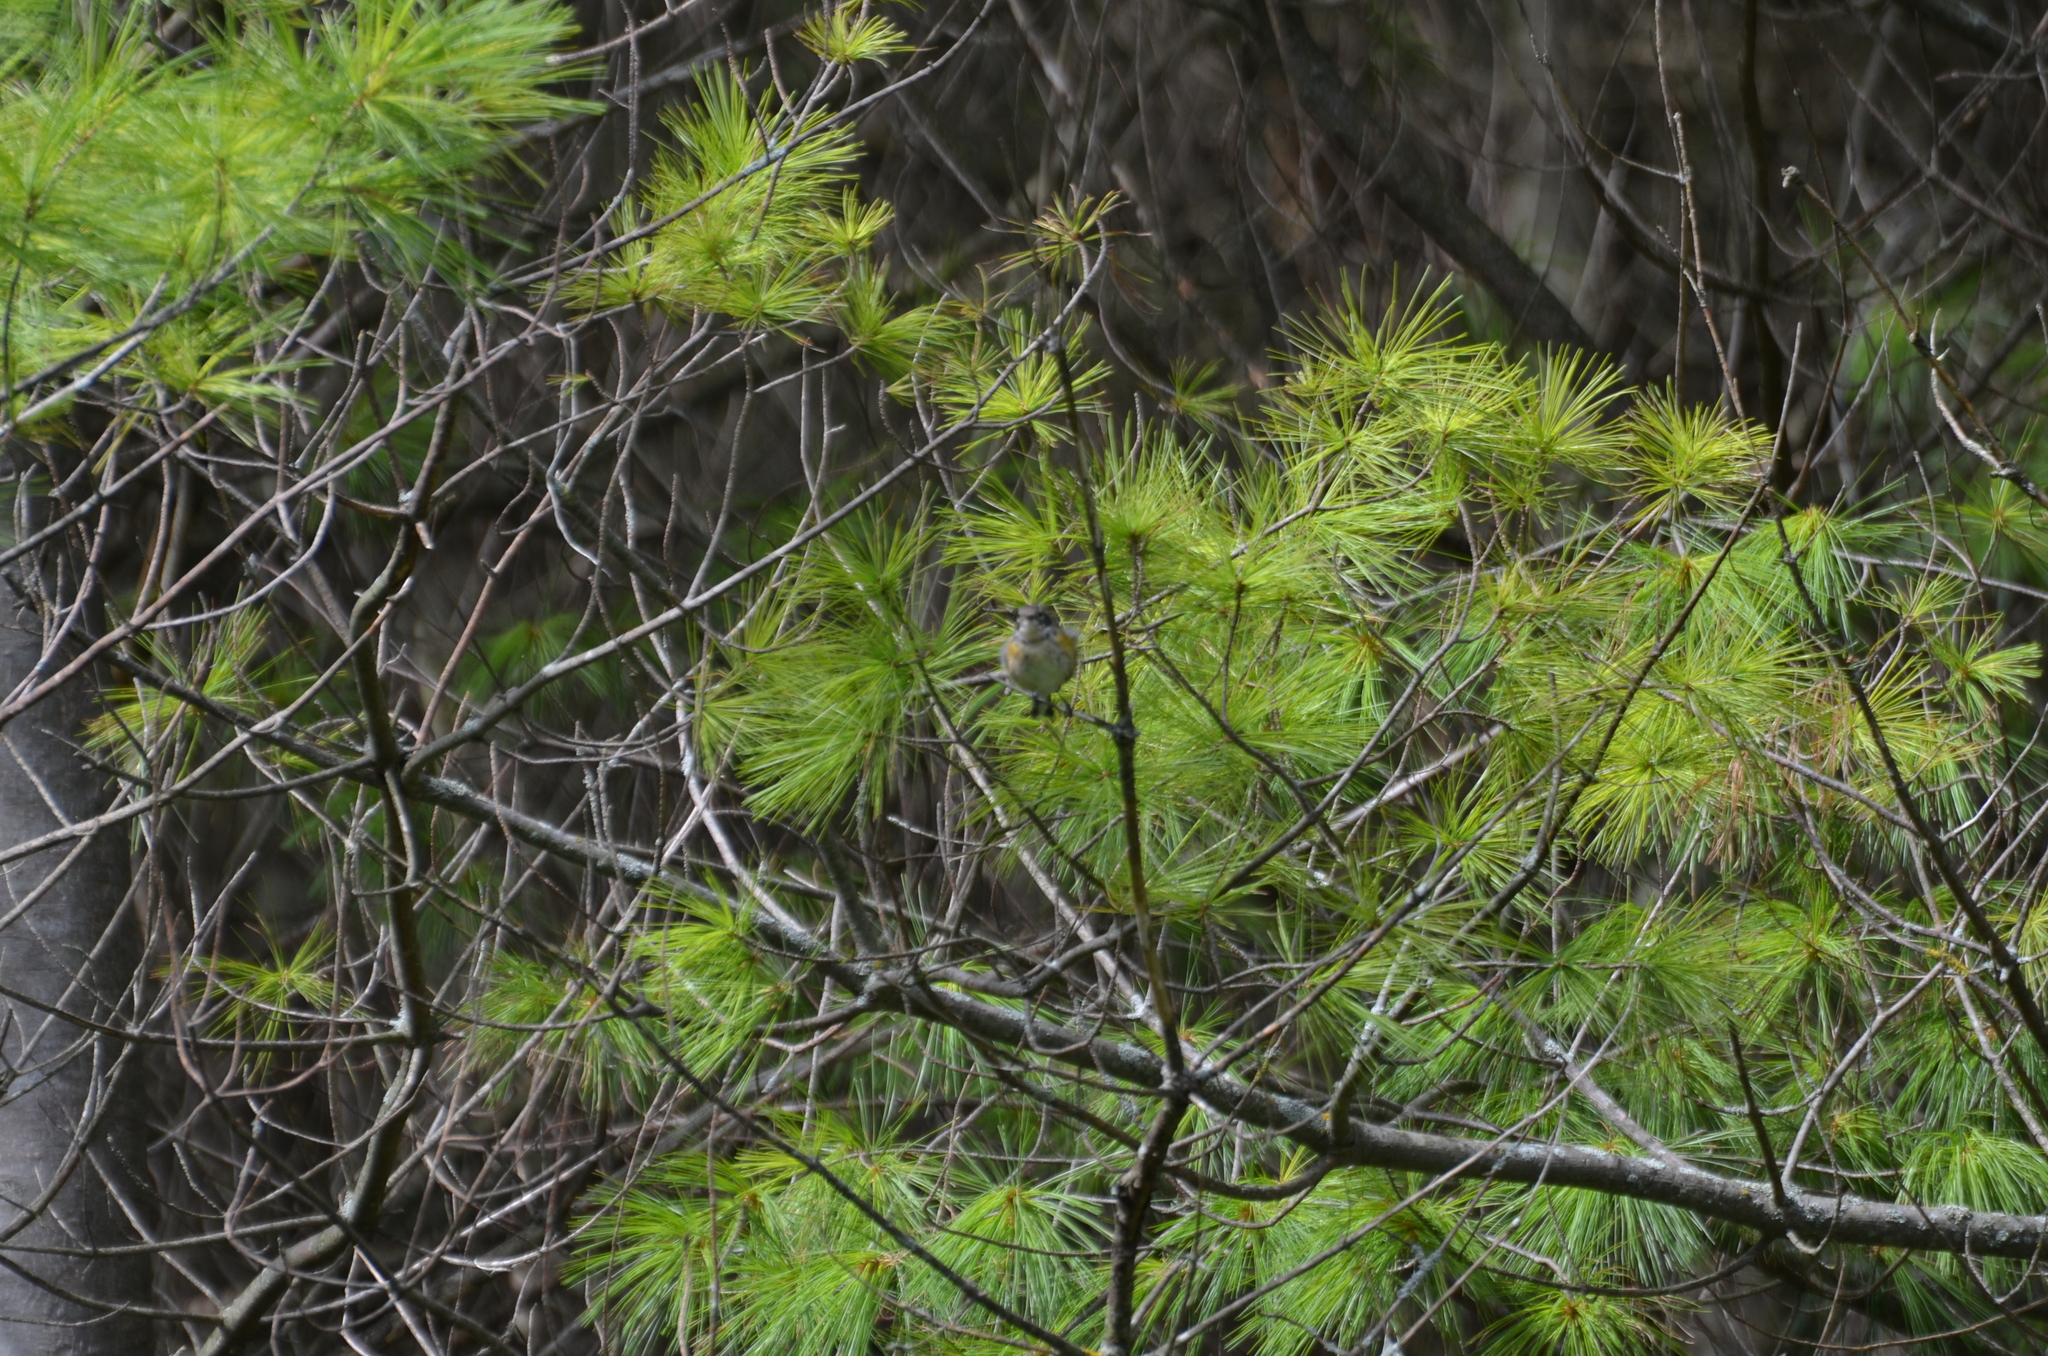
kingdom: Animalia
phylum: Chordata
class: Aves
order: Passeriformes
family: Parulidae
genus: Setophaga
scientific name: Setophaga coronata
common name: Myrtle warbler
